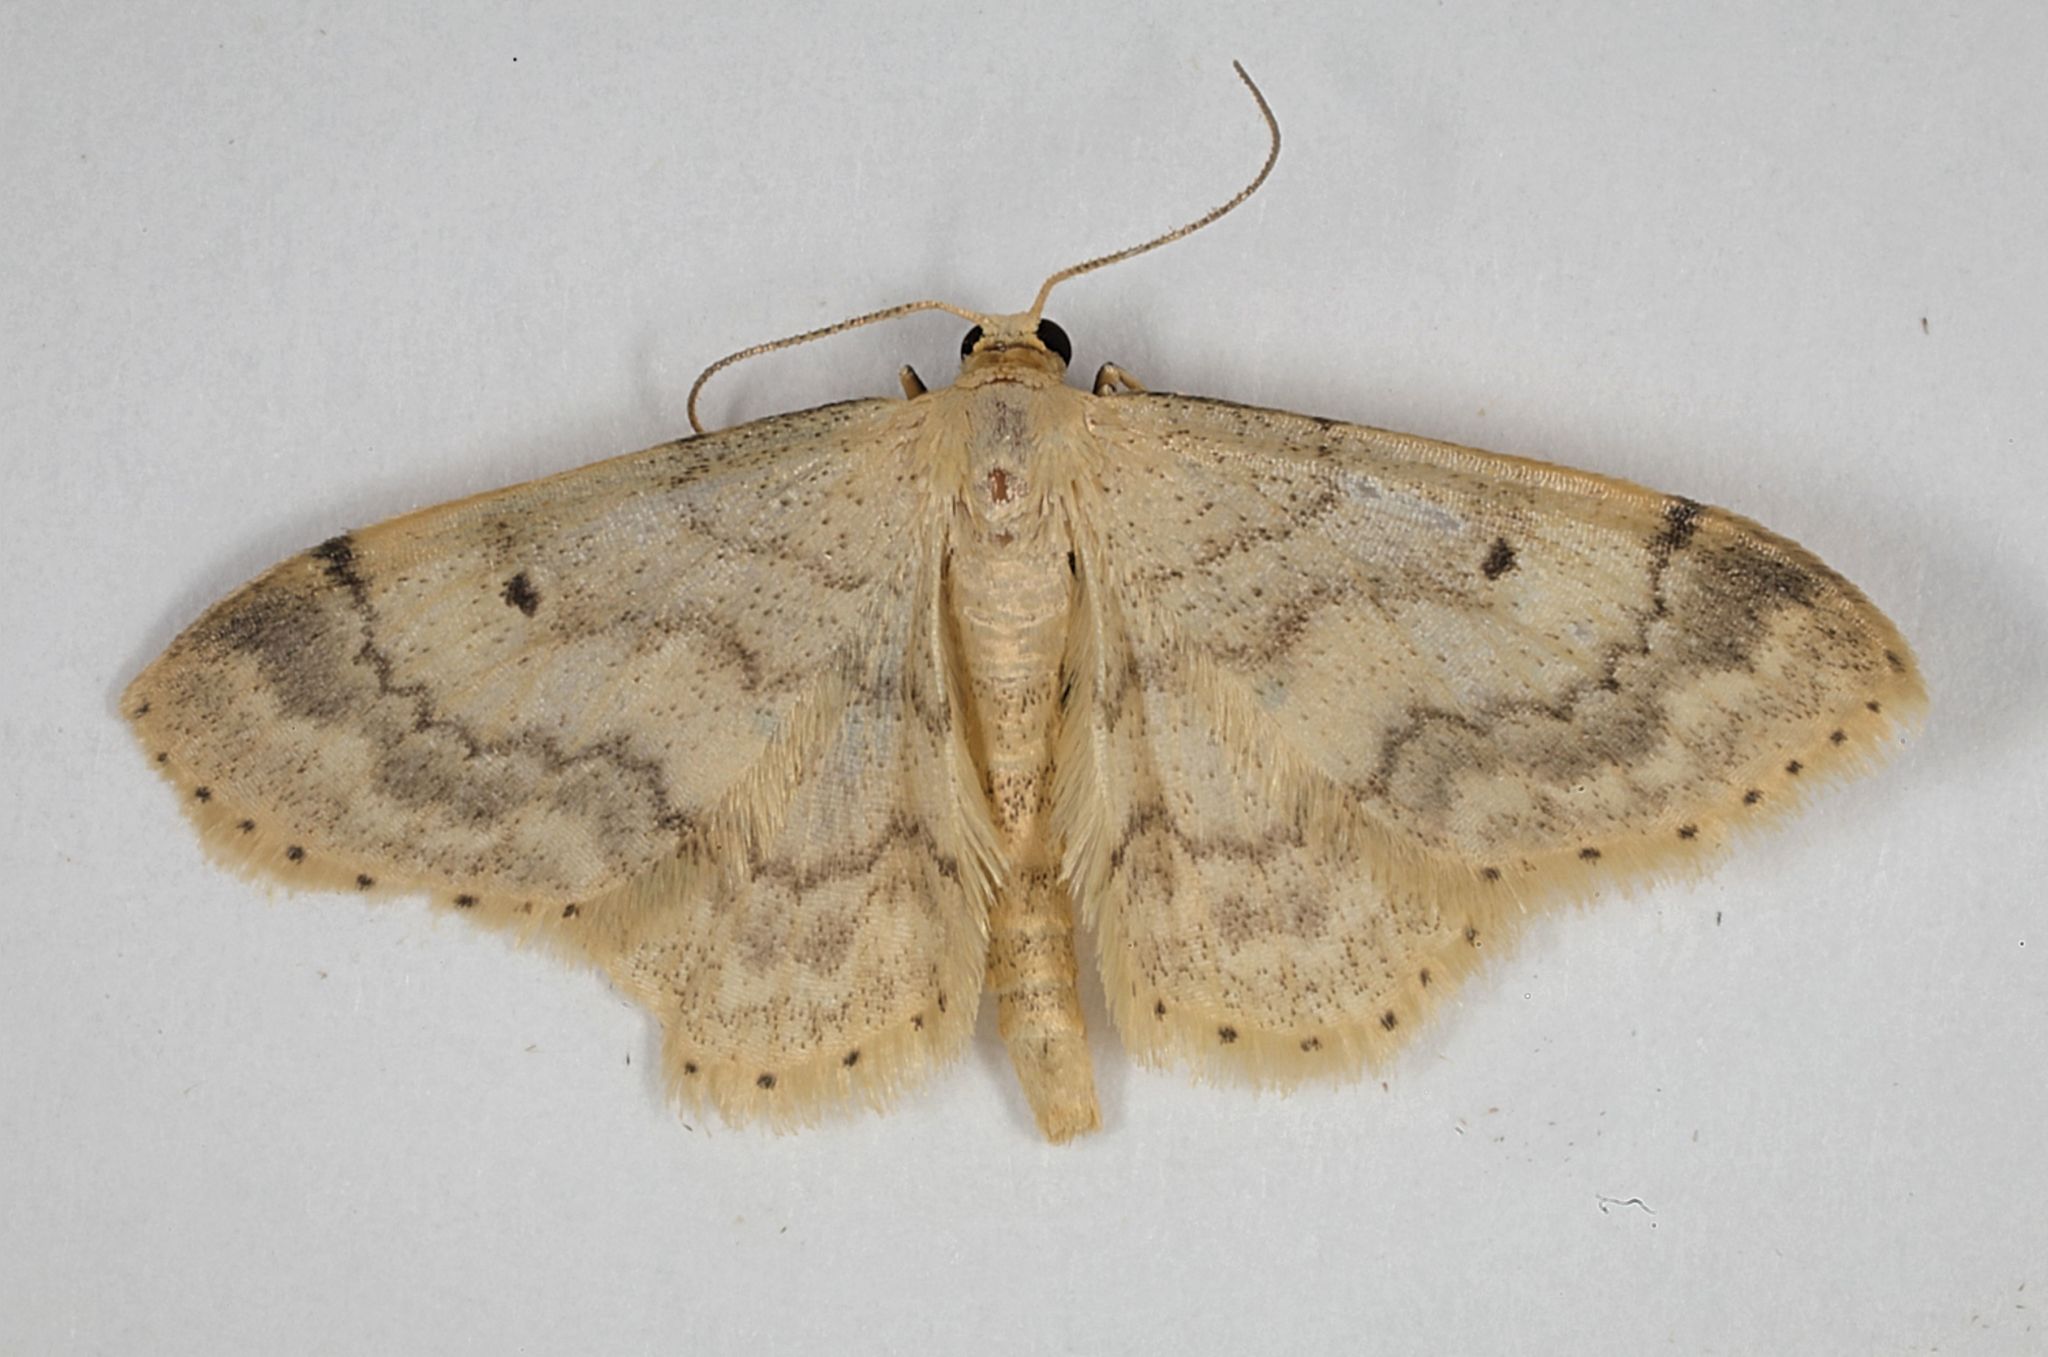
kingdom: Animalia
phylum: Arthropoda
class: Insecta
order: Lepidoptera
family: Geometridae
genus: Idaea
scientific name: Idaea biselata
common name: Small fan-footed wave
